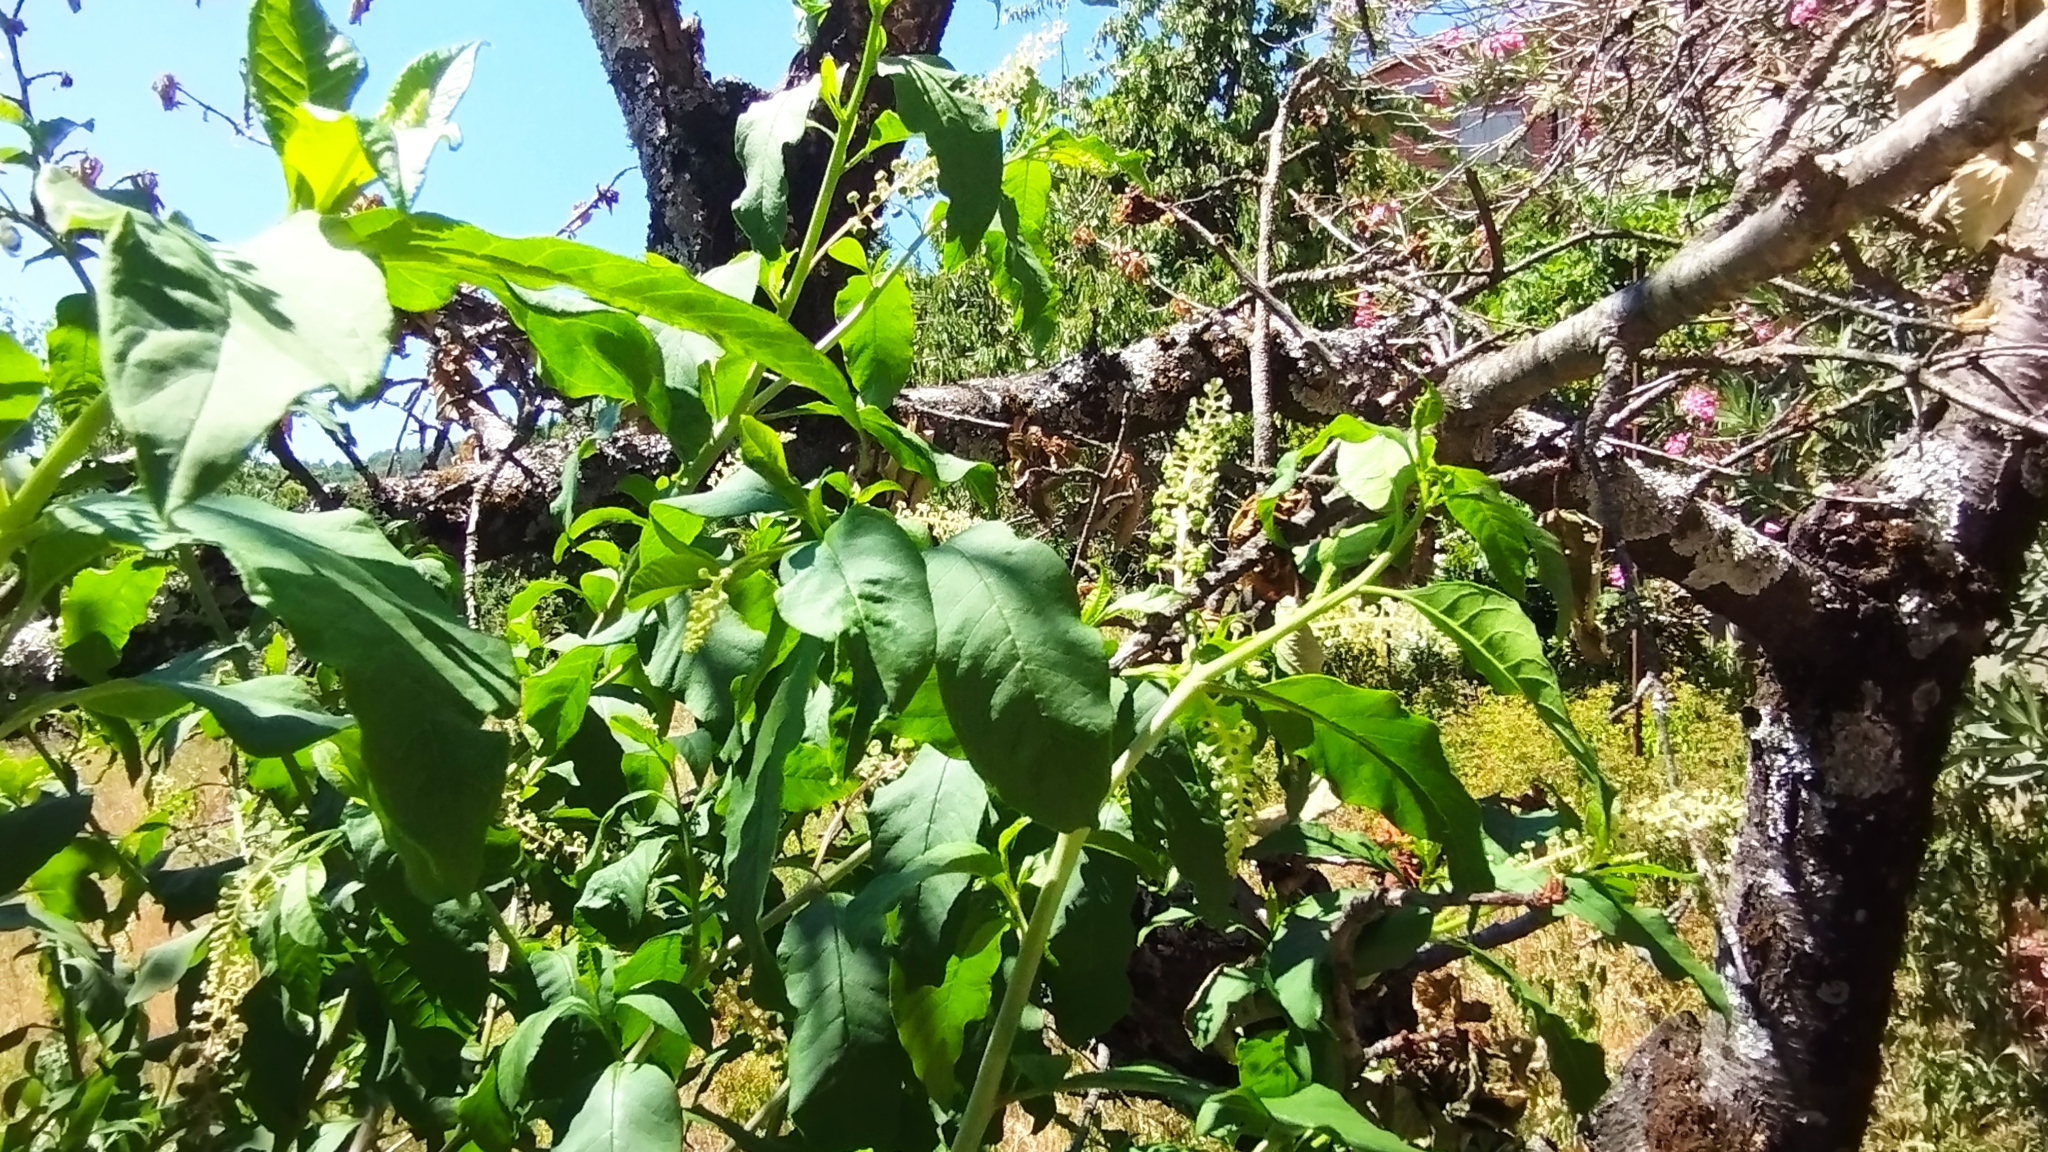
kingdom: Plantae
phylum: Tracheophyta
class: Magnoliopsida
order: Caryophyllales
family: Phytolaccaceae
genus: Phytolacca
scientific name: Phytolacca americana
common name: American pokeweed
